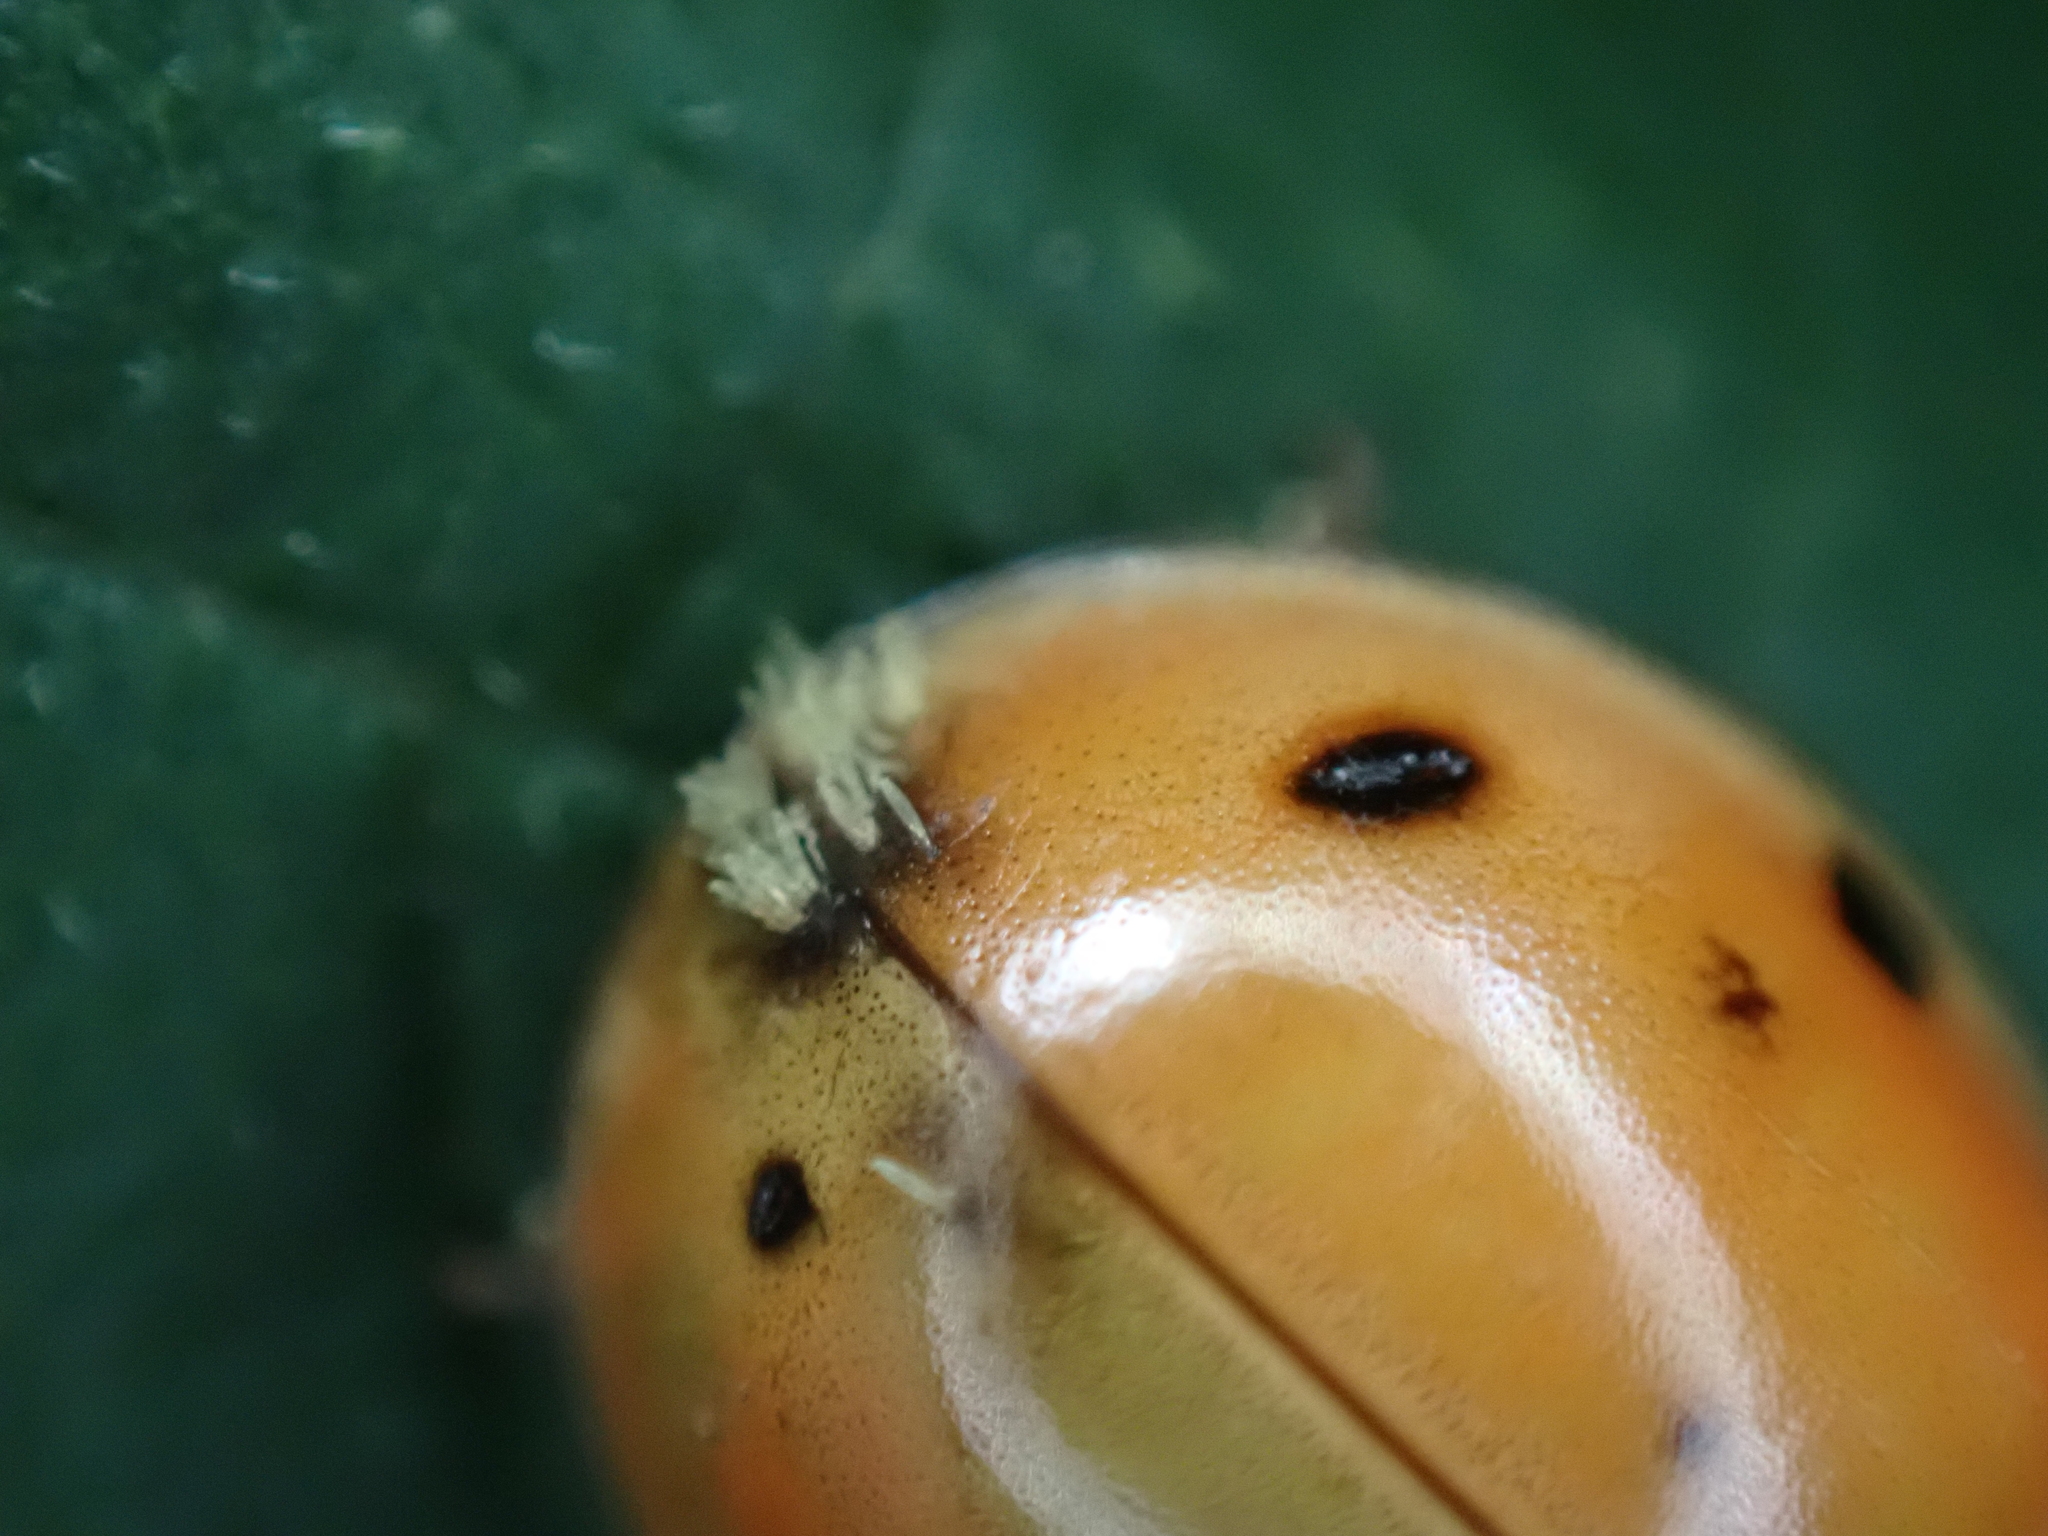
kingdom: Fungi
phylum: Ascomycota
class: Laboulbeniomycetes
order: Laboulbeniales
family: Laboulbeniaceae
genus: Hesperomyces
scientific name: Hesperomyces harmoniae
